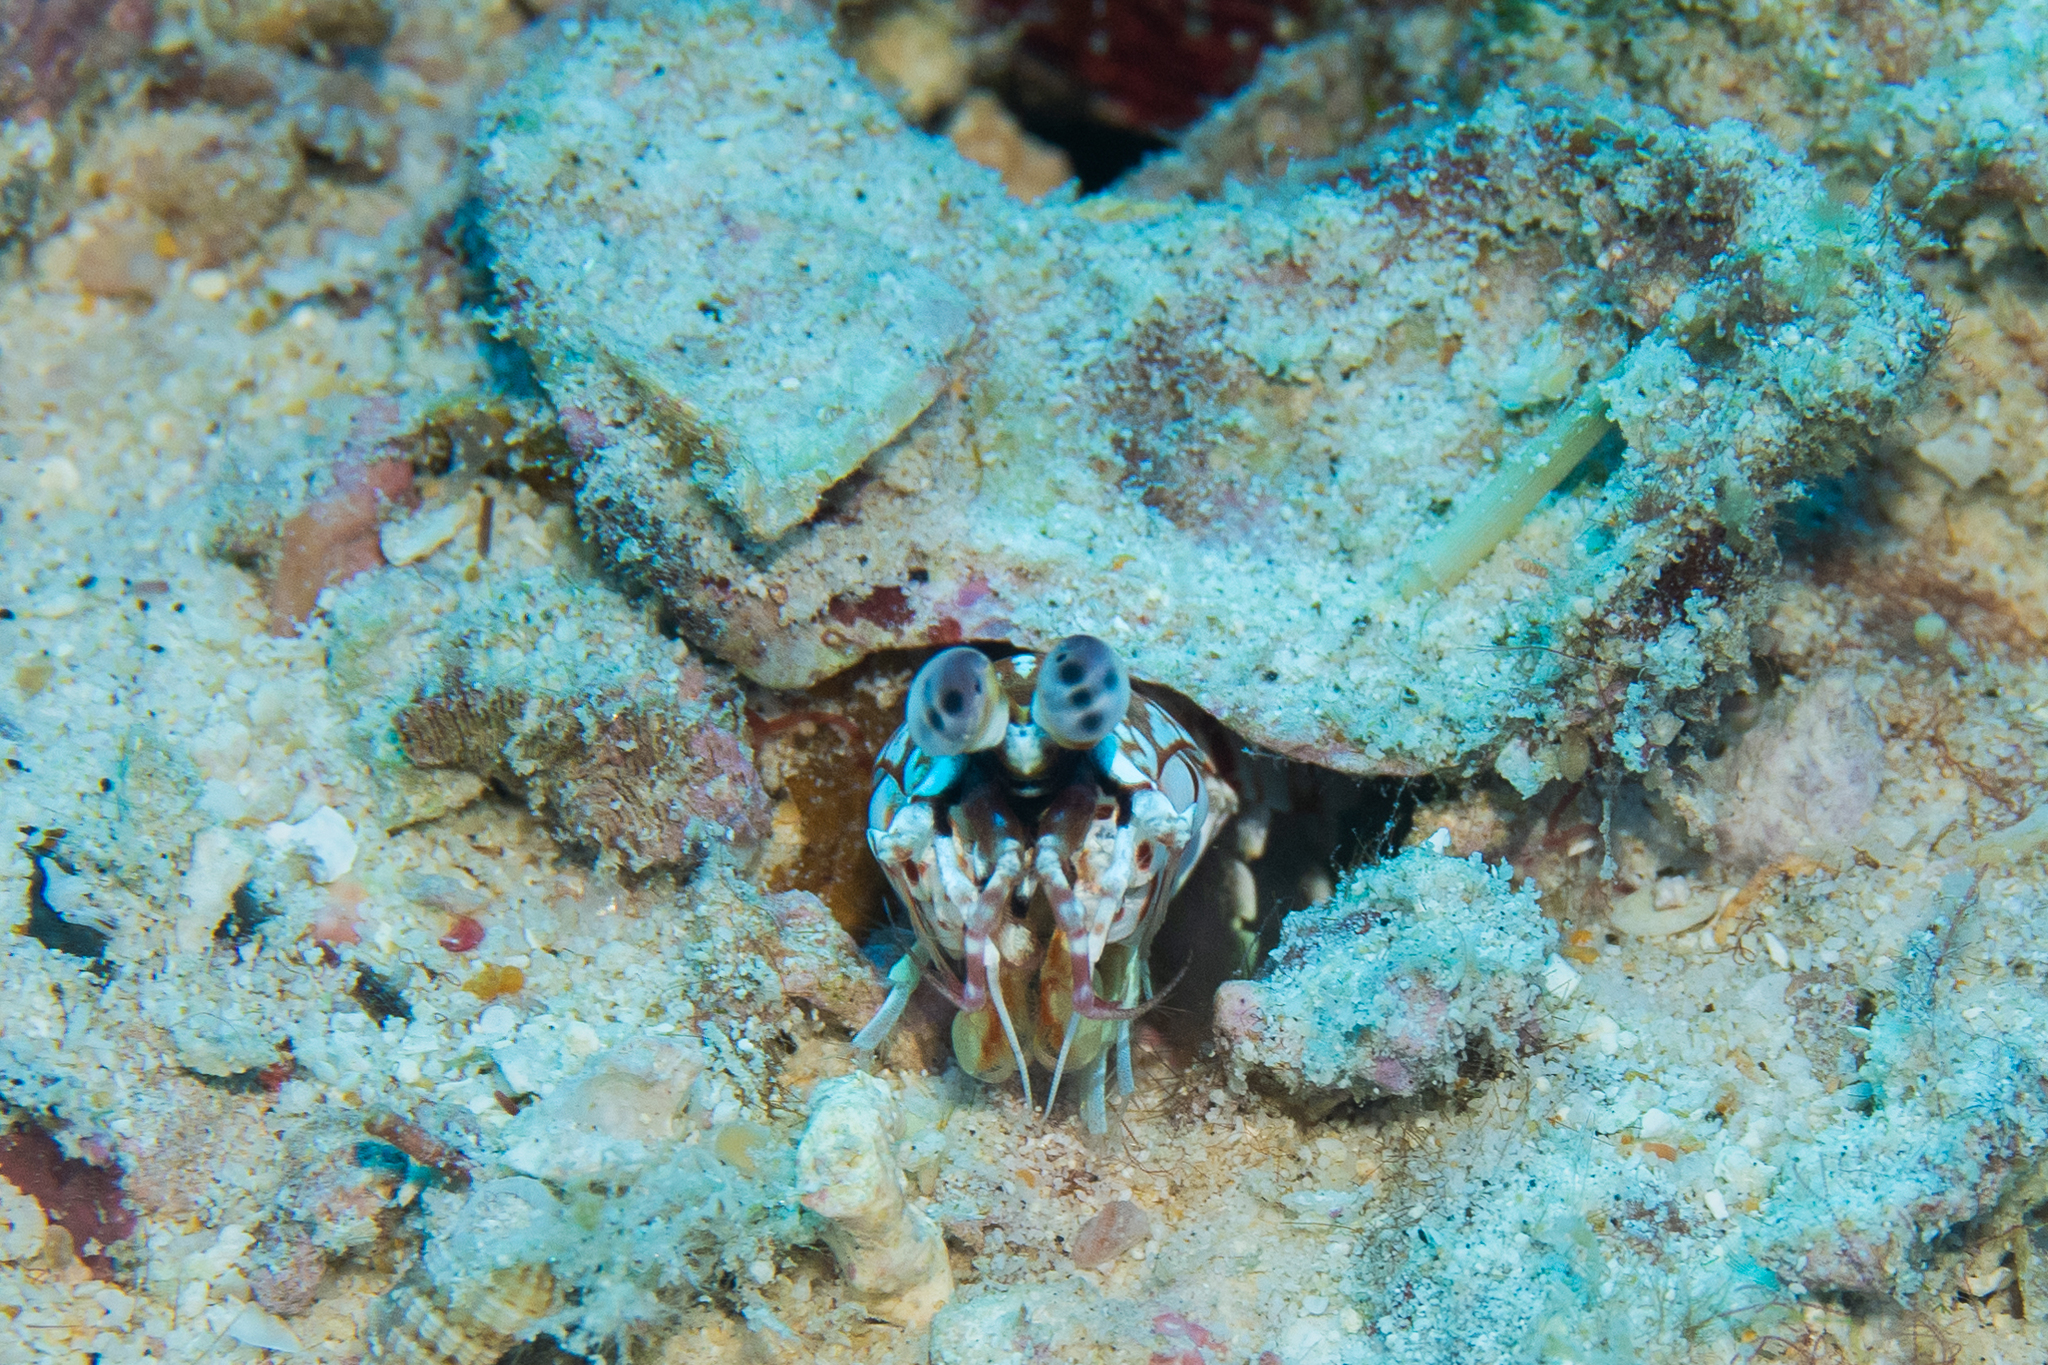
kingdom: Animalia
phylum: Arthropoda
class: Malacostraca
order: Stomatopoda
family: Odontodactylidae
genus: Odontodactylus
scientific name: Odontodactylus brevirostris
